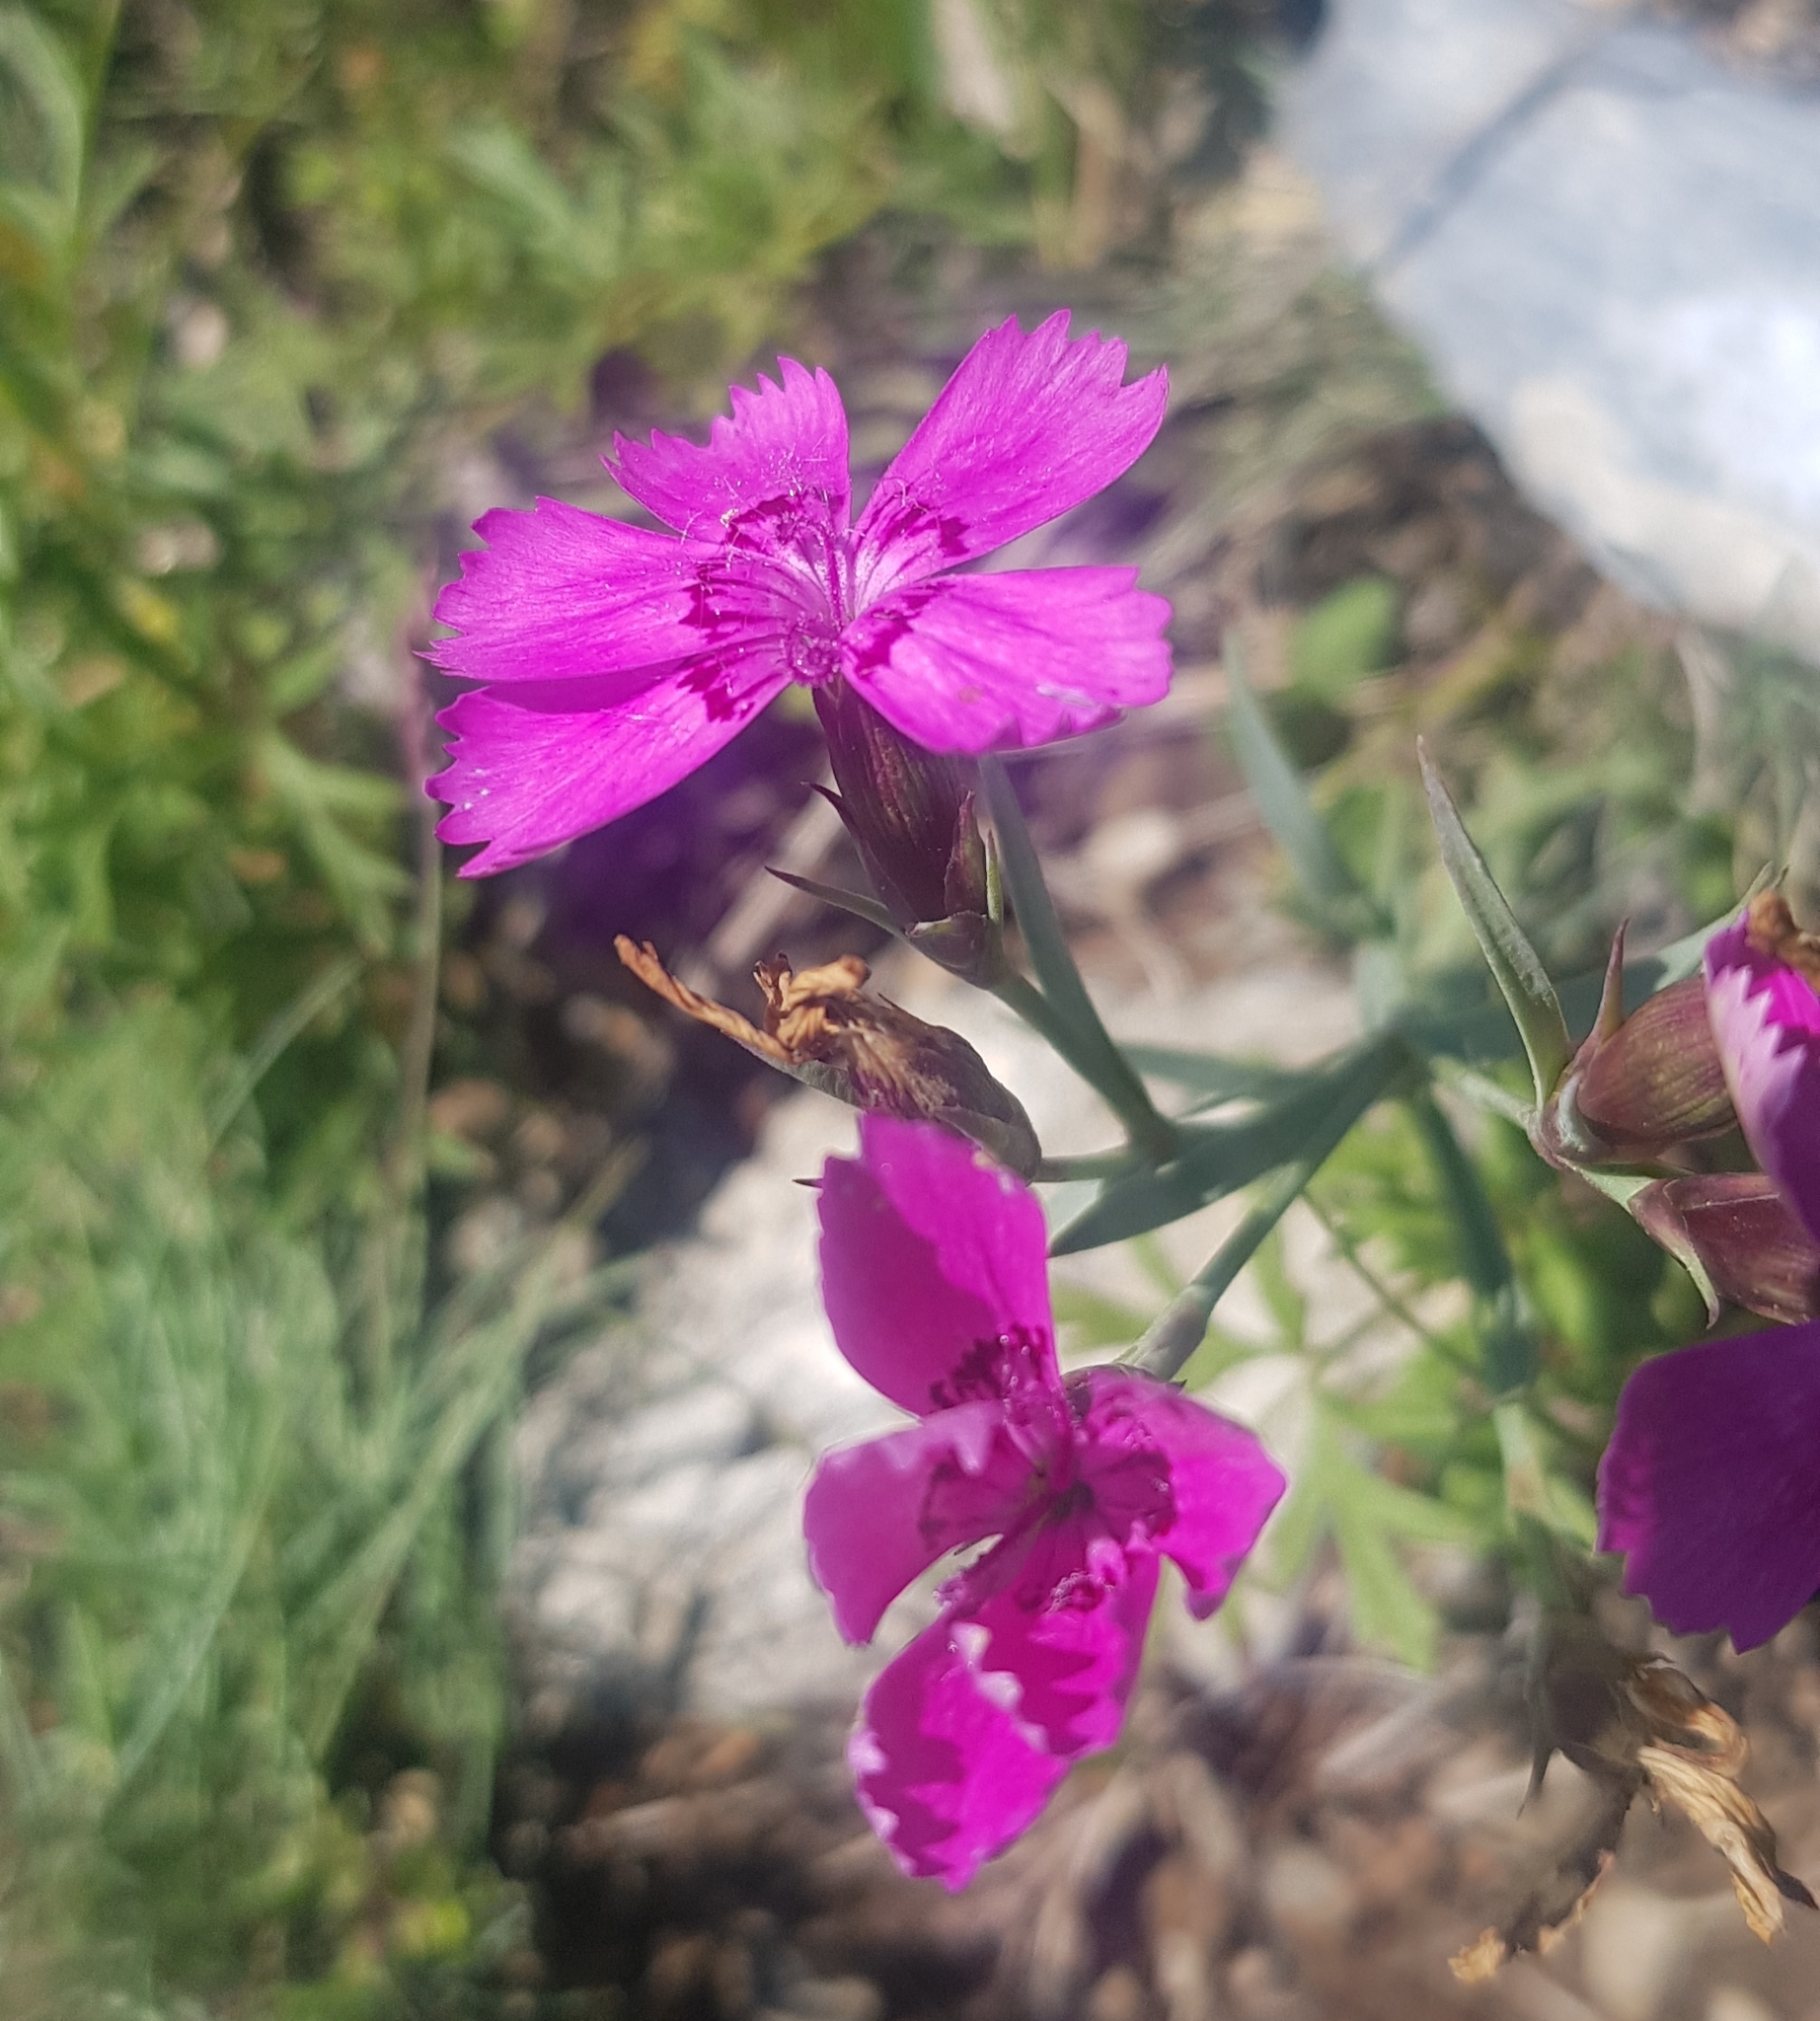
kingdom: Plantae
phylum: Tracheophyta
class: Magnoliopsida
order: Caryophyllales
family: Caryophyllaceae
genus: Dianthus
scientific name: Dianthus chinensis
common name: Rainbow pink
